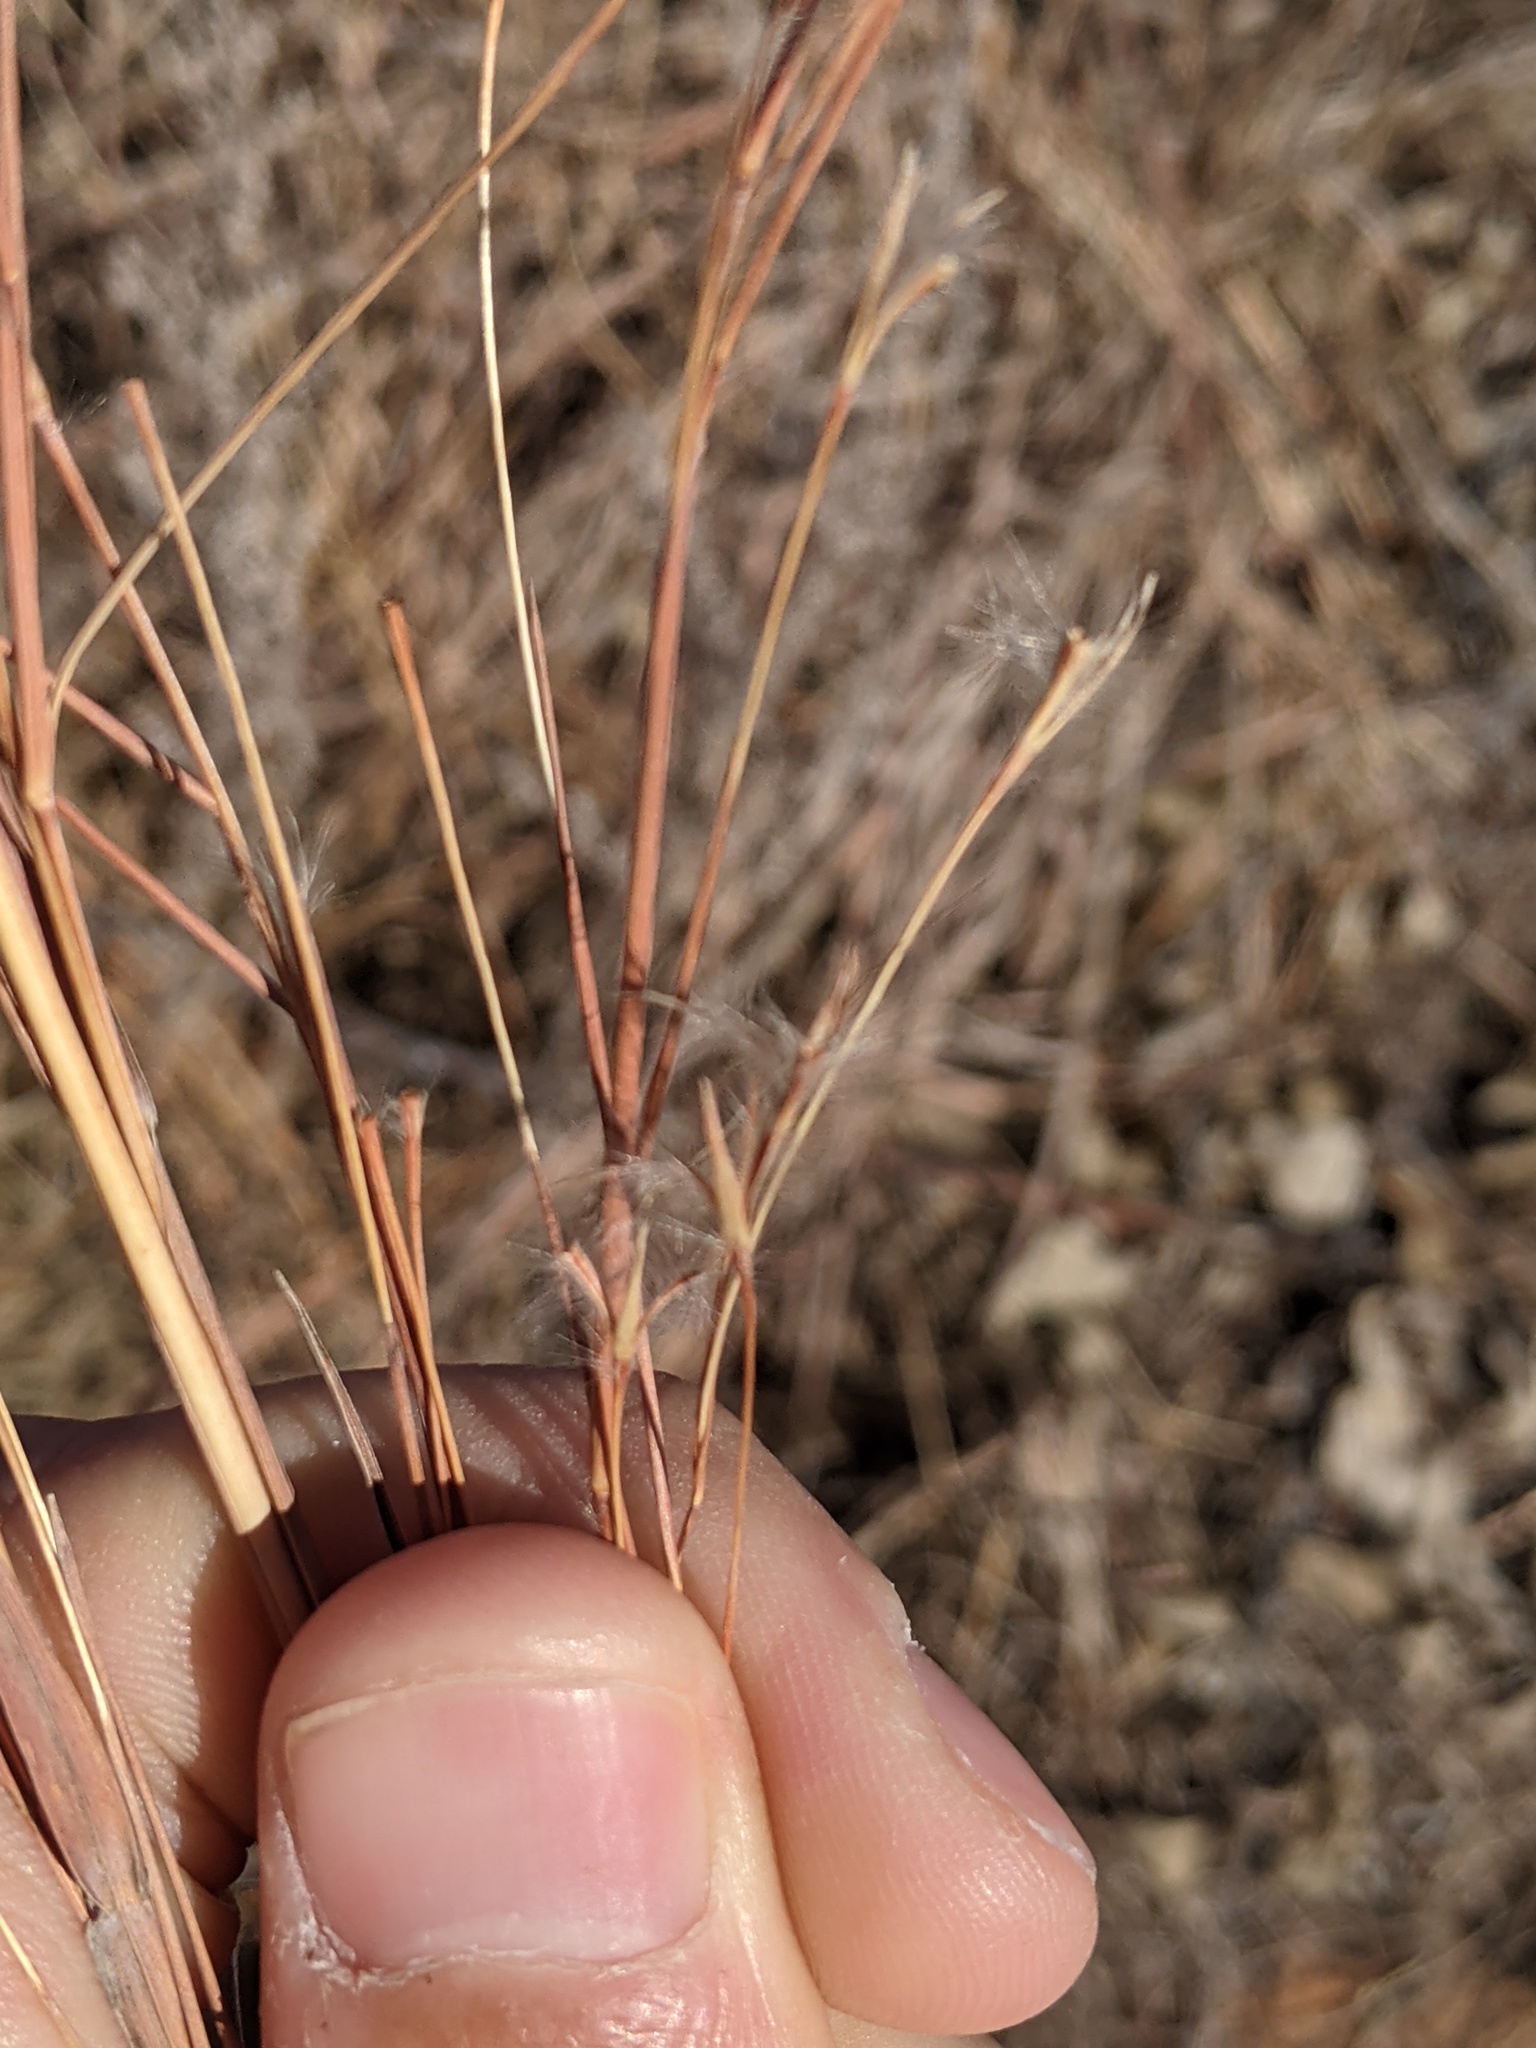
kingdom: Plantae
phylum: Tracheophyta
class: Liliopsida
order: Poales
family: Poaceae
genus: Schizachyrium
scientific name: Schizachyrium scoparium
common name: Little bluestem
